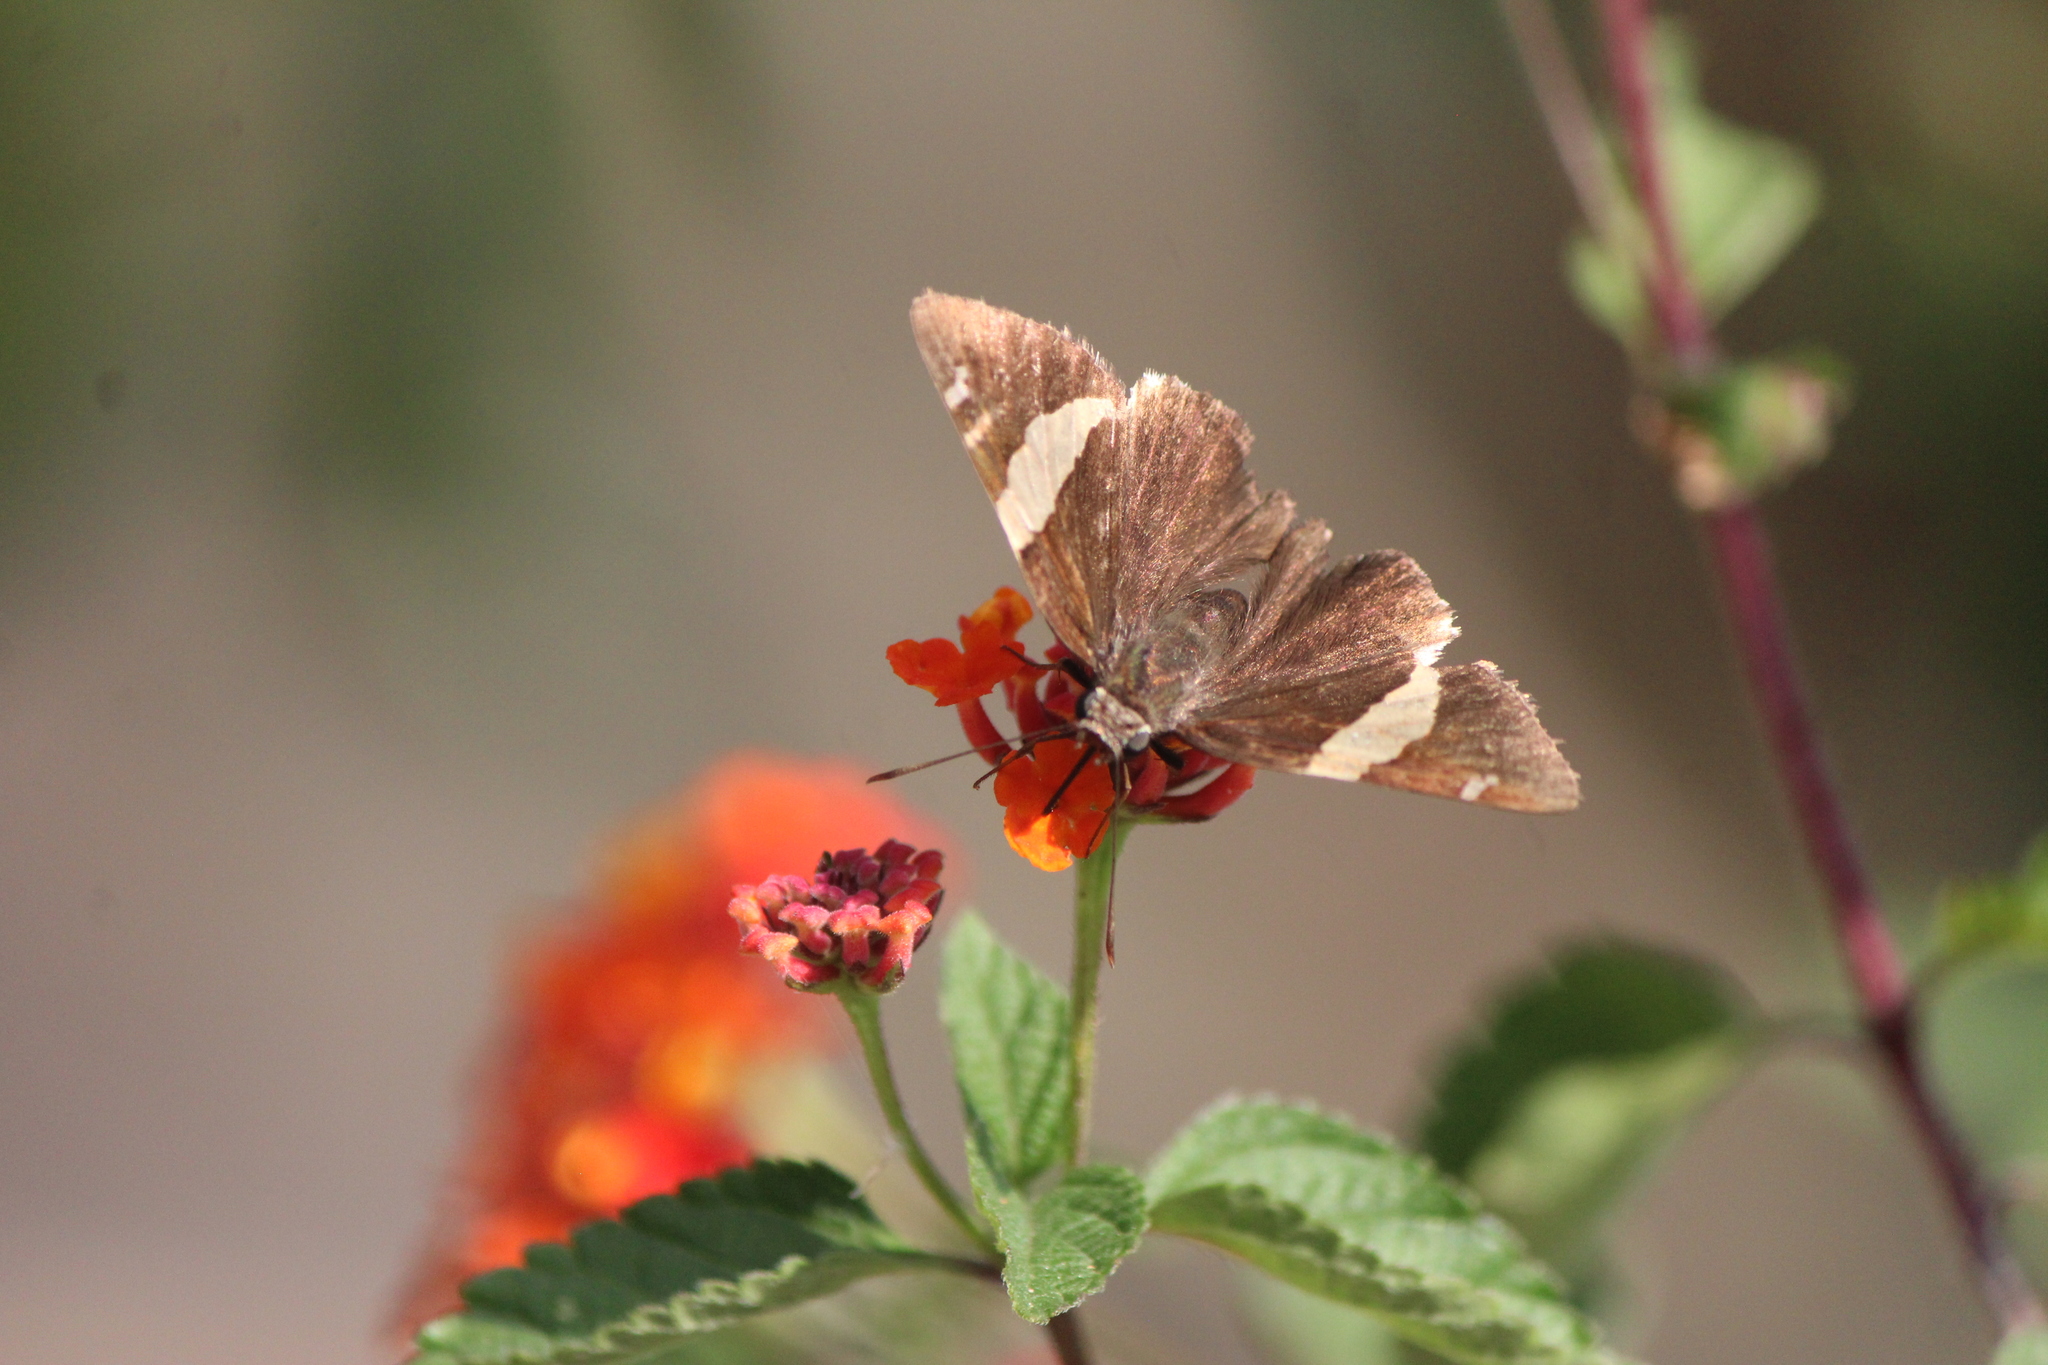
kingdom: Animalia
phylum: Arthropoda
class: Insecta
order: Lepidoptera
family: Hesperiidae
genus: Thorybes
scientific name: Thorybes pseudocellus
